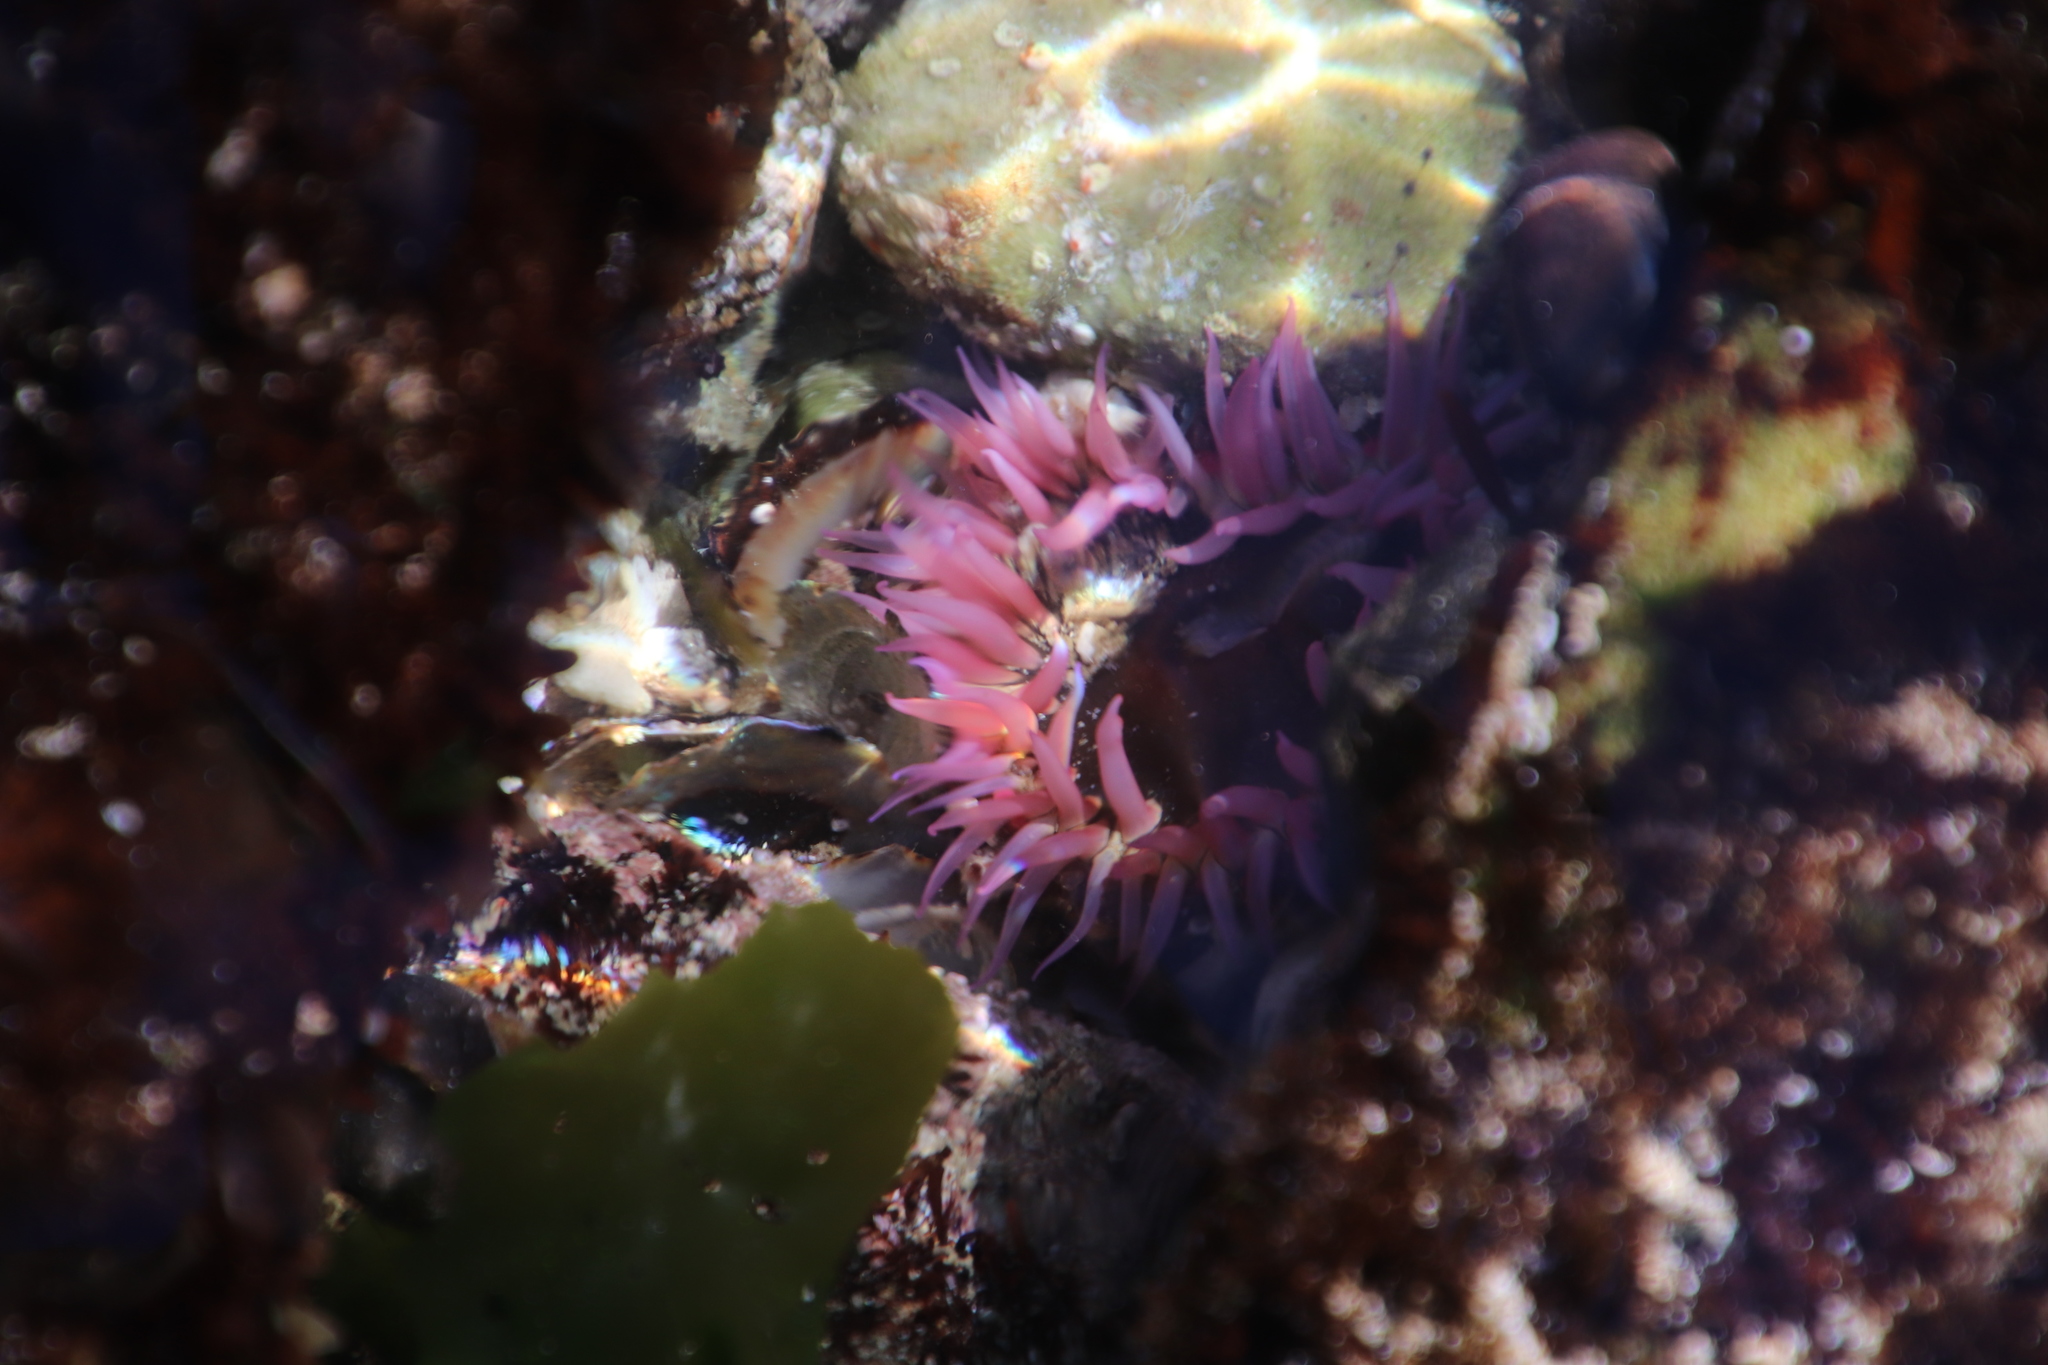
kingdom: Animalia
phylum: Cnidaria
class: Anthozoa
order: Actiniaria
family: Actiniidae
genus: Anthopleura
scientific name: Anthopleura michaelseni
